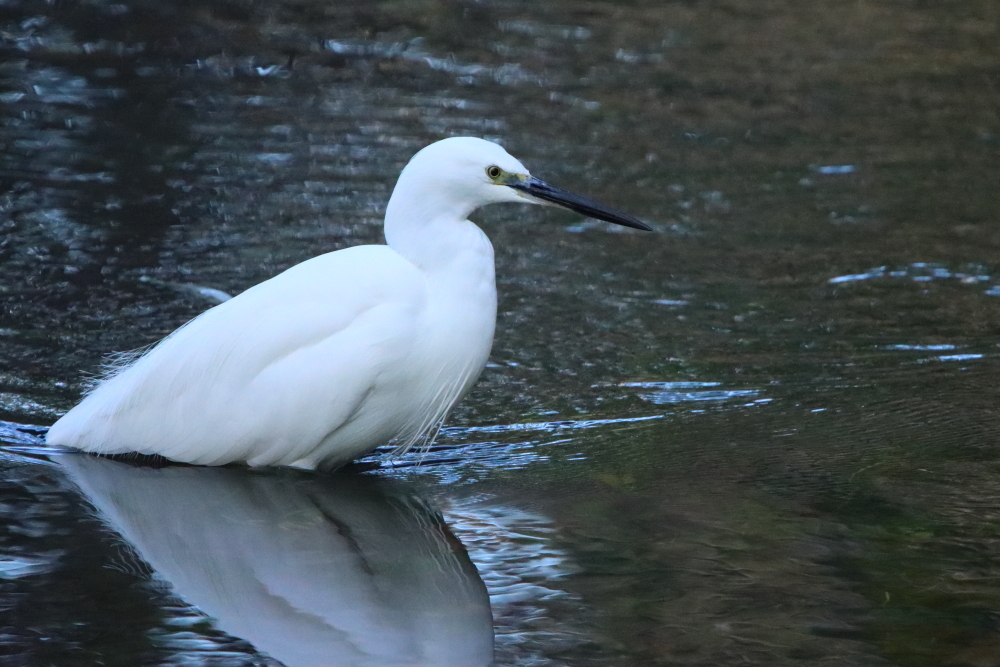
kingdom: Animalia
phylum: Chordata
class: Aves
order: Pelecaniformes
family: Ardeidae
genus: Egretta
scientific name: Egretta garzetta
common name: Little egret
